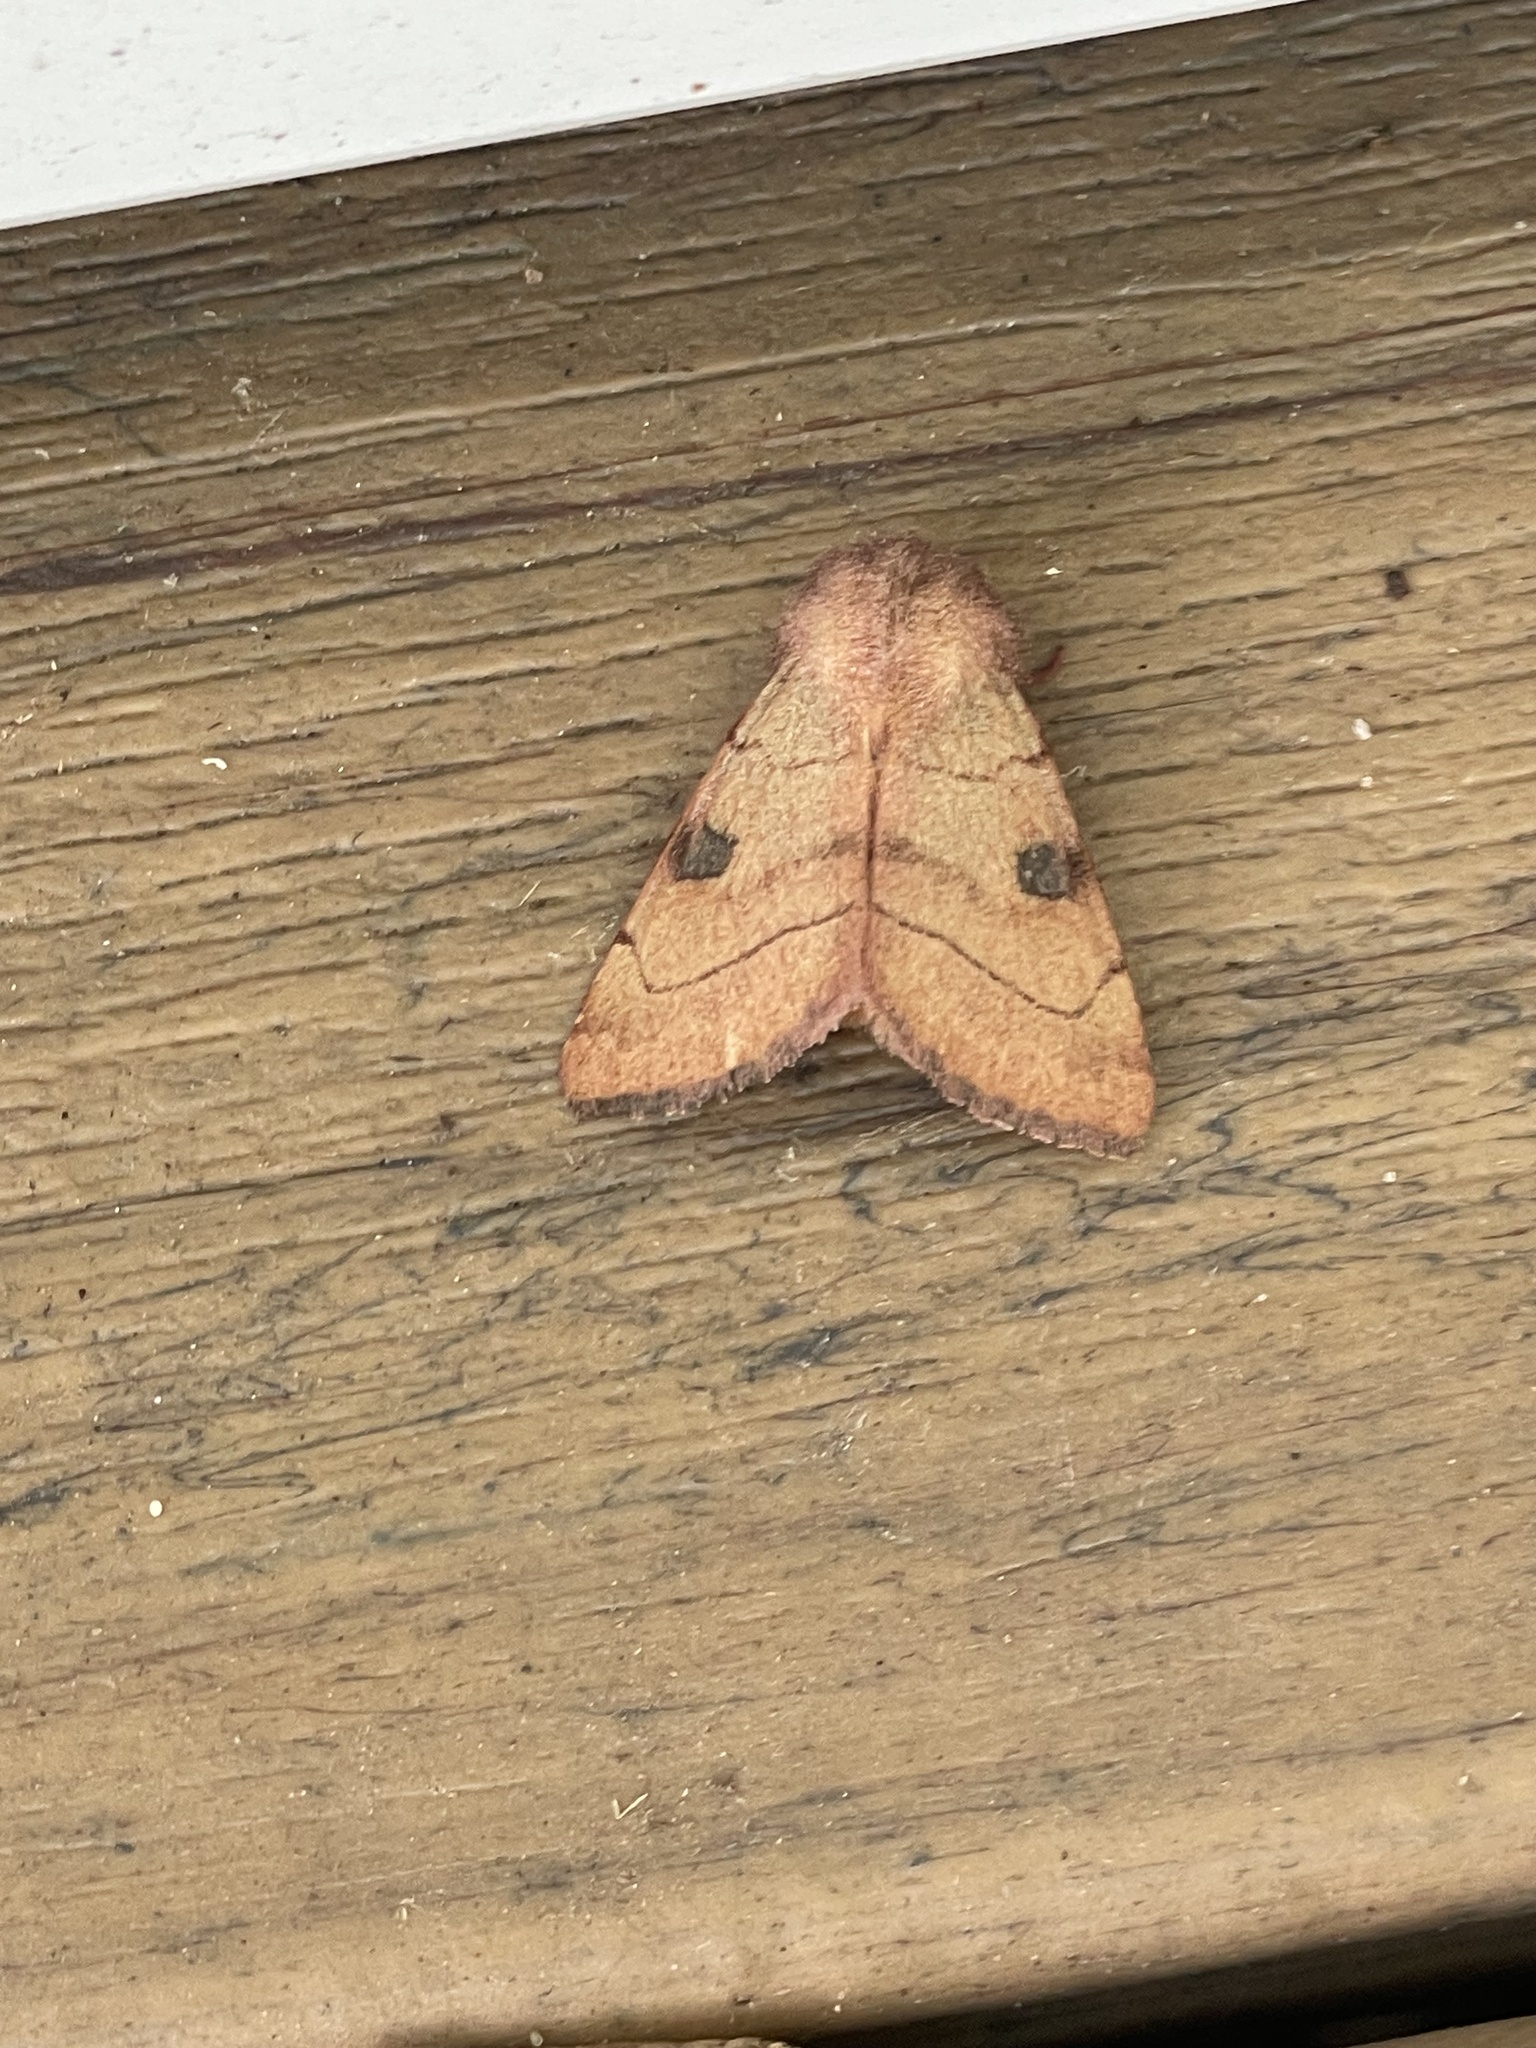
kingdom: Animalia
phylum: Arthropoda
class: Insecta
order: Lepidoptera
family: Noctuidae
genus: Choephora
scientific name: Choephora fungorum
